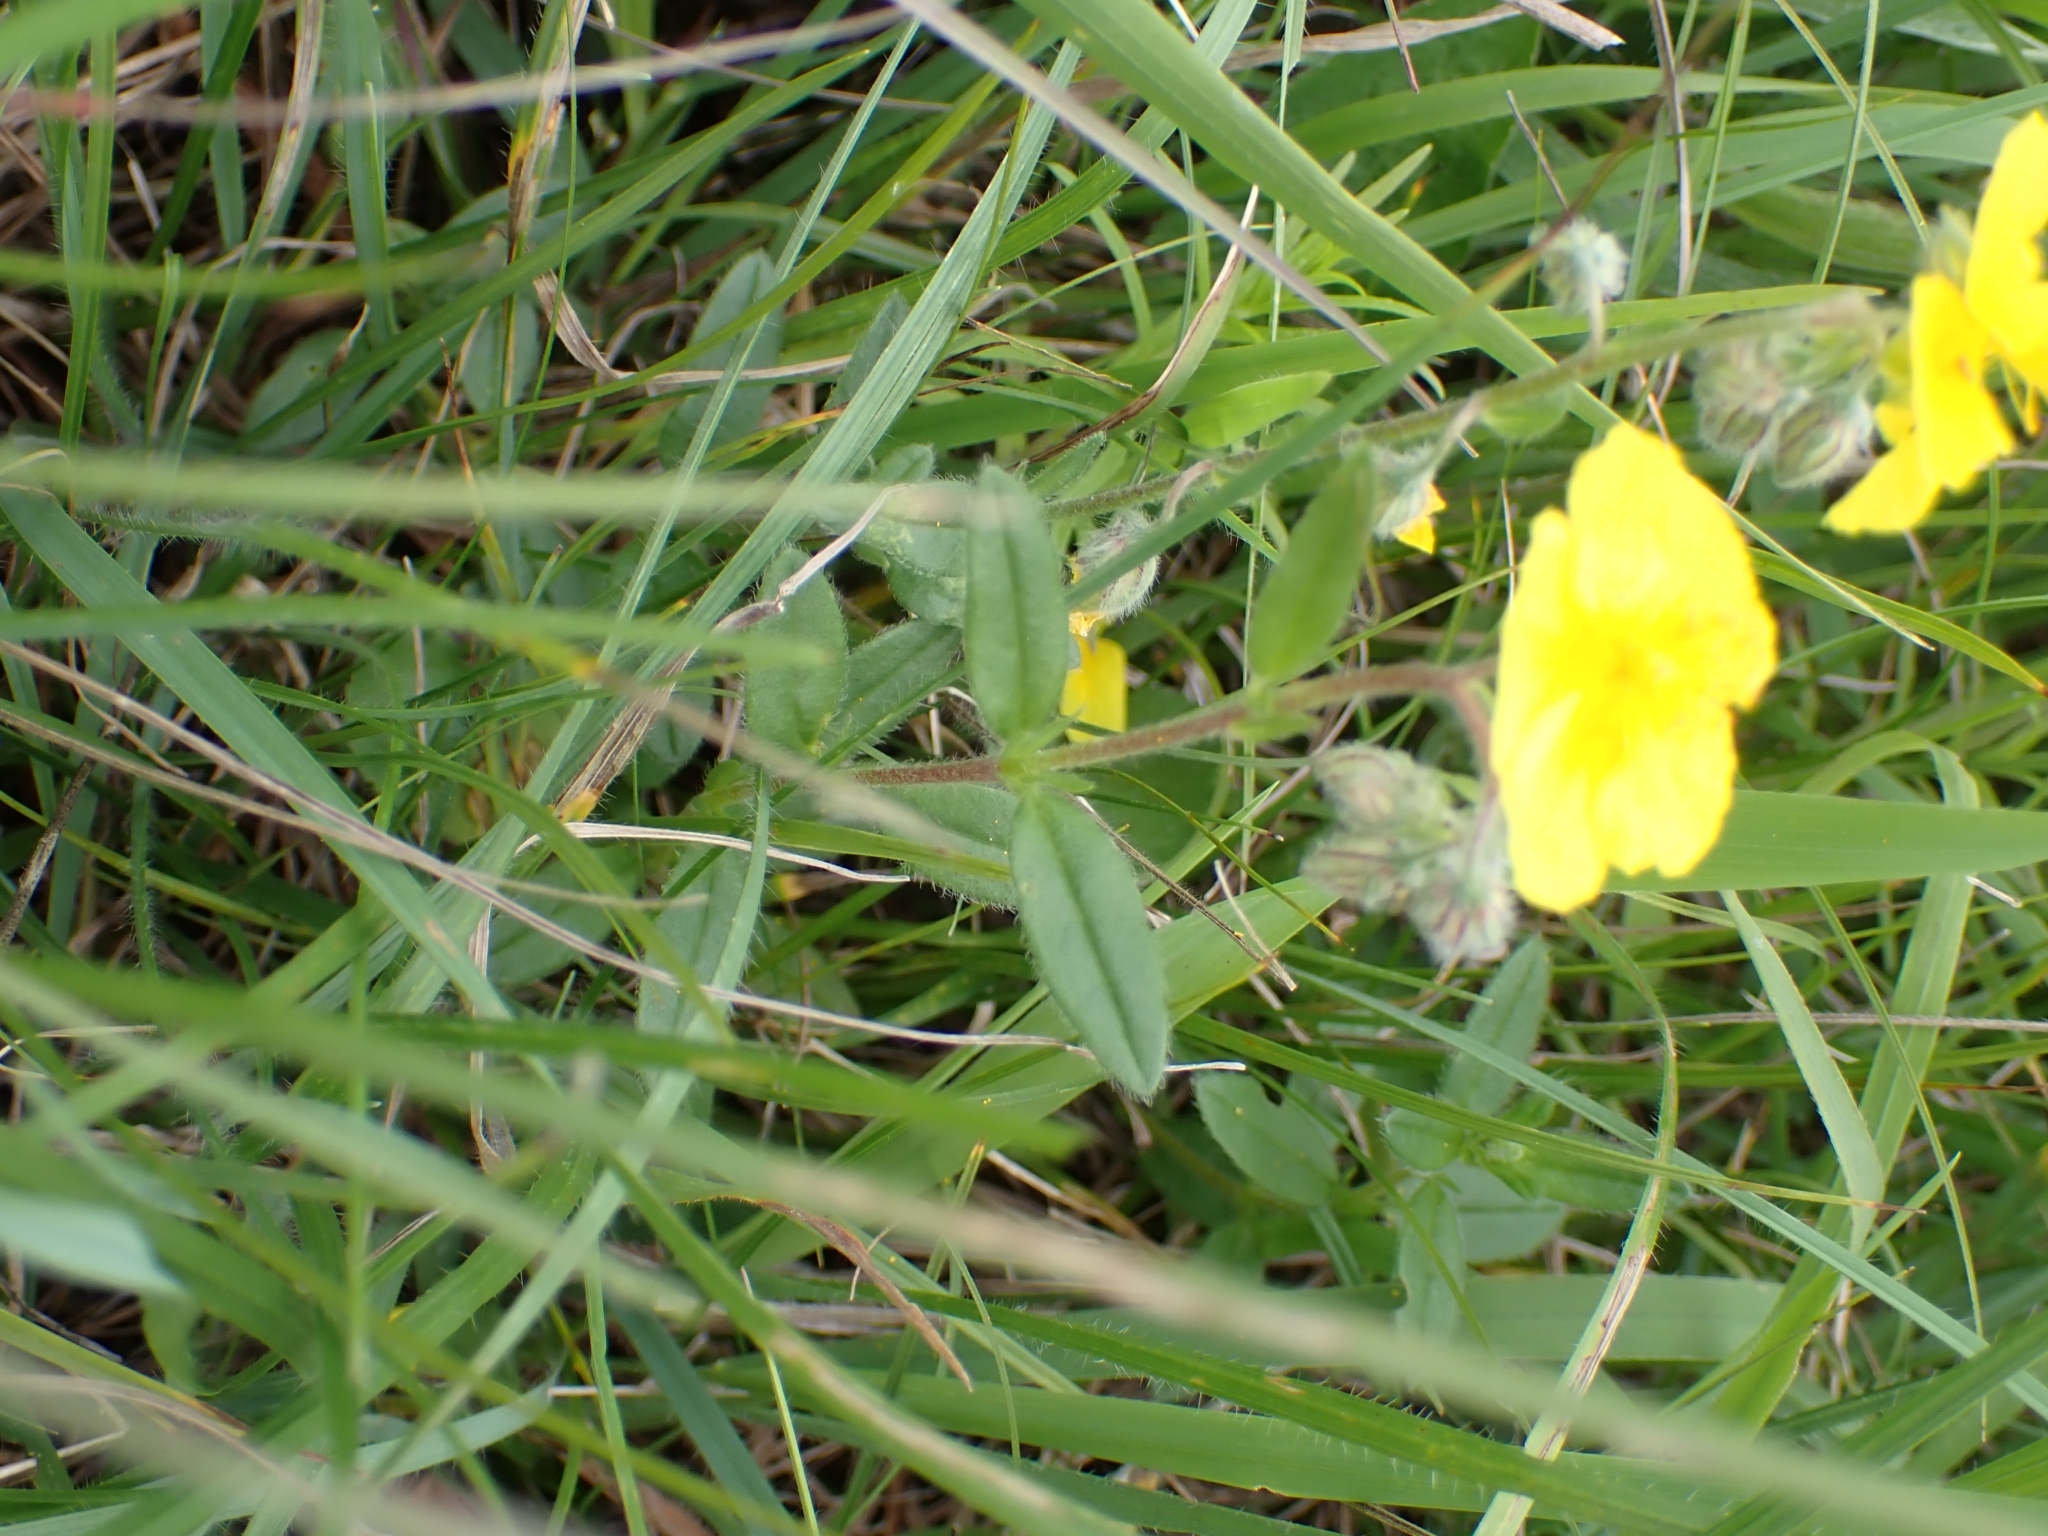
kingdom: Plantae
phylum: Tracheophyta
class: Magnoliopsida
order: Malvales
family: Cistaceae
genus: Helianthemum
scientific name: Helianthemum nummularium
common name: Common rock-rose
